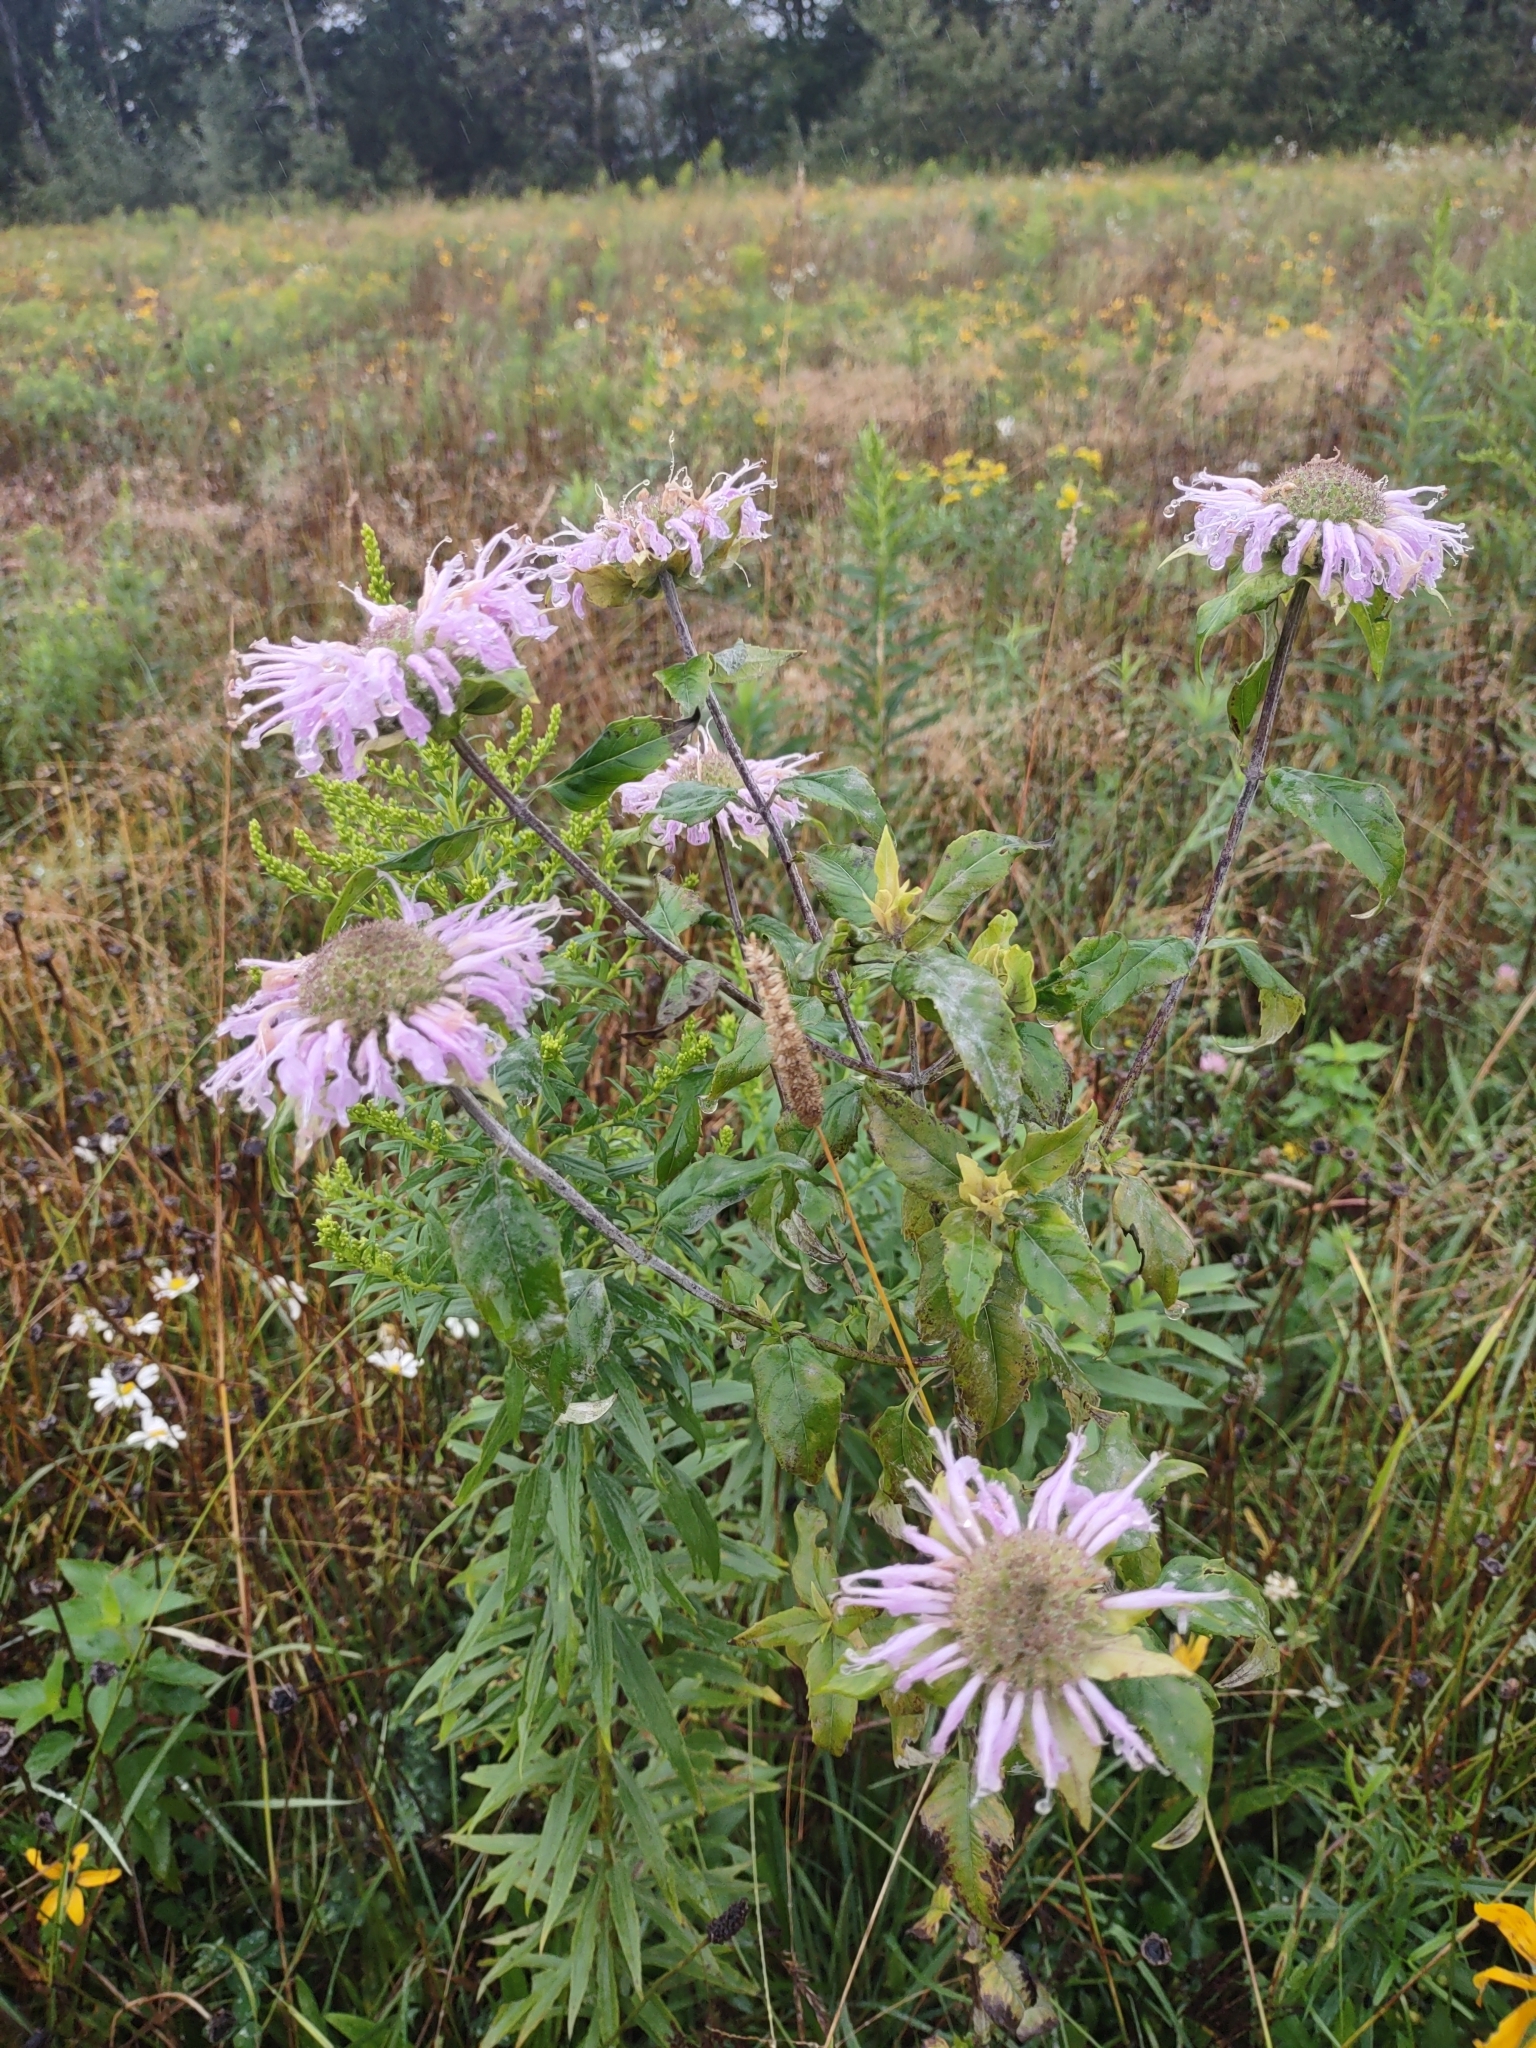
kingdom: Plantae
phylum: Tracheophyta
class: Magnoliopsida
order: Lamiales
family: Lamiaceae
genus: Monarda
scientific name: Monarda fistulosa
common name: Purple beebalm
